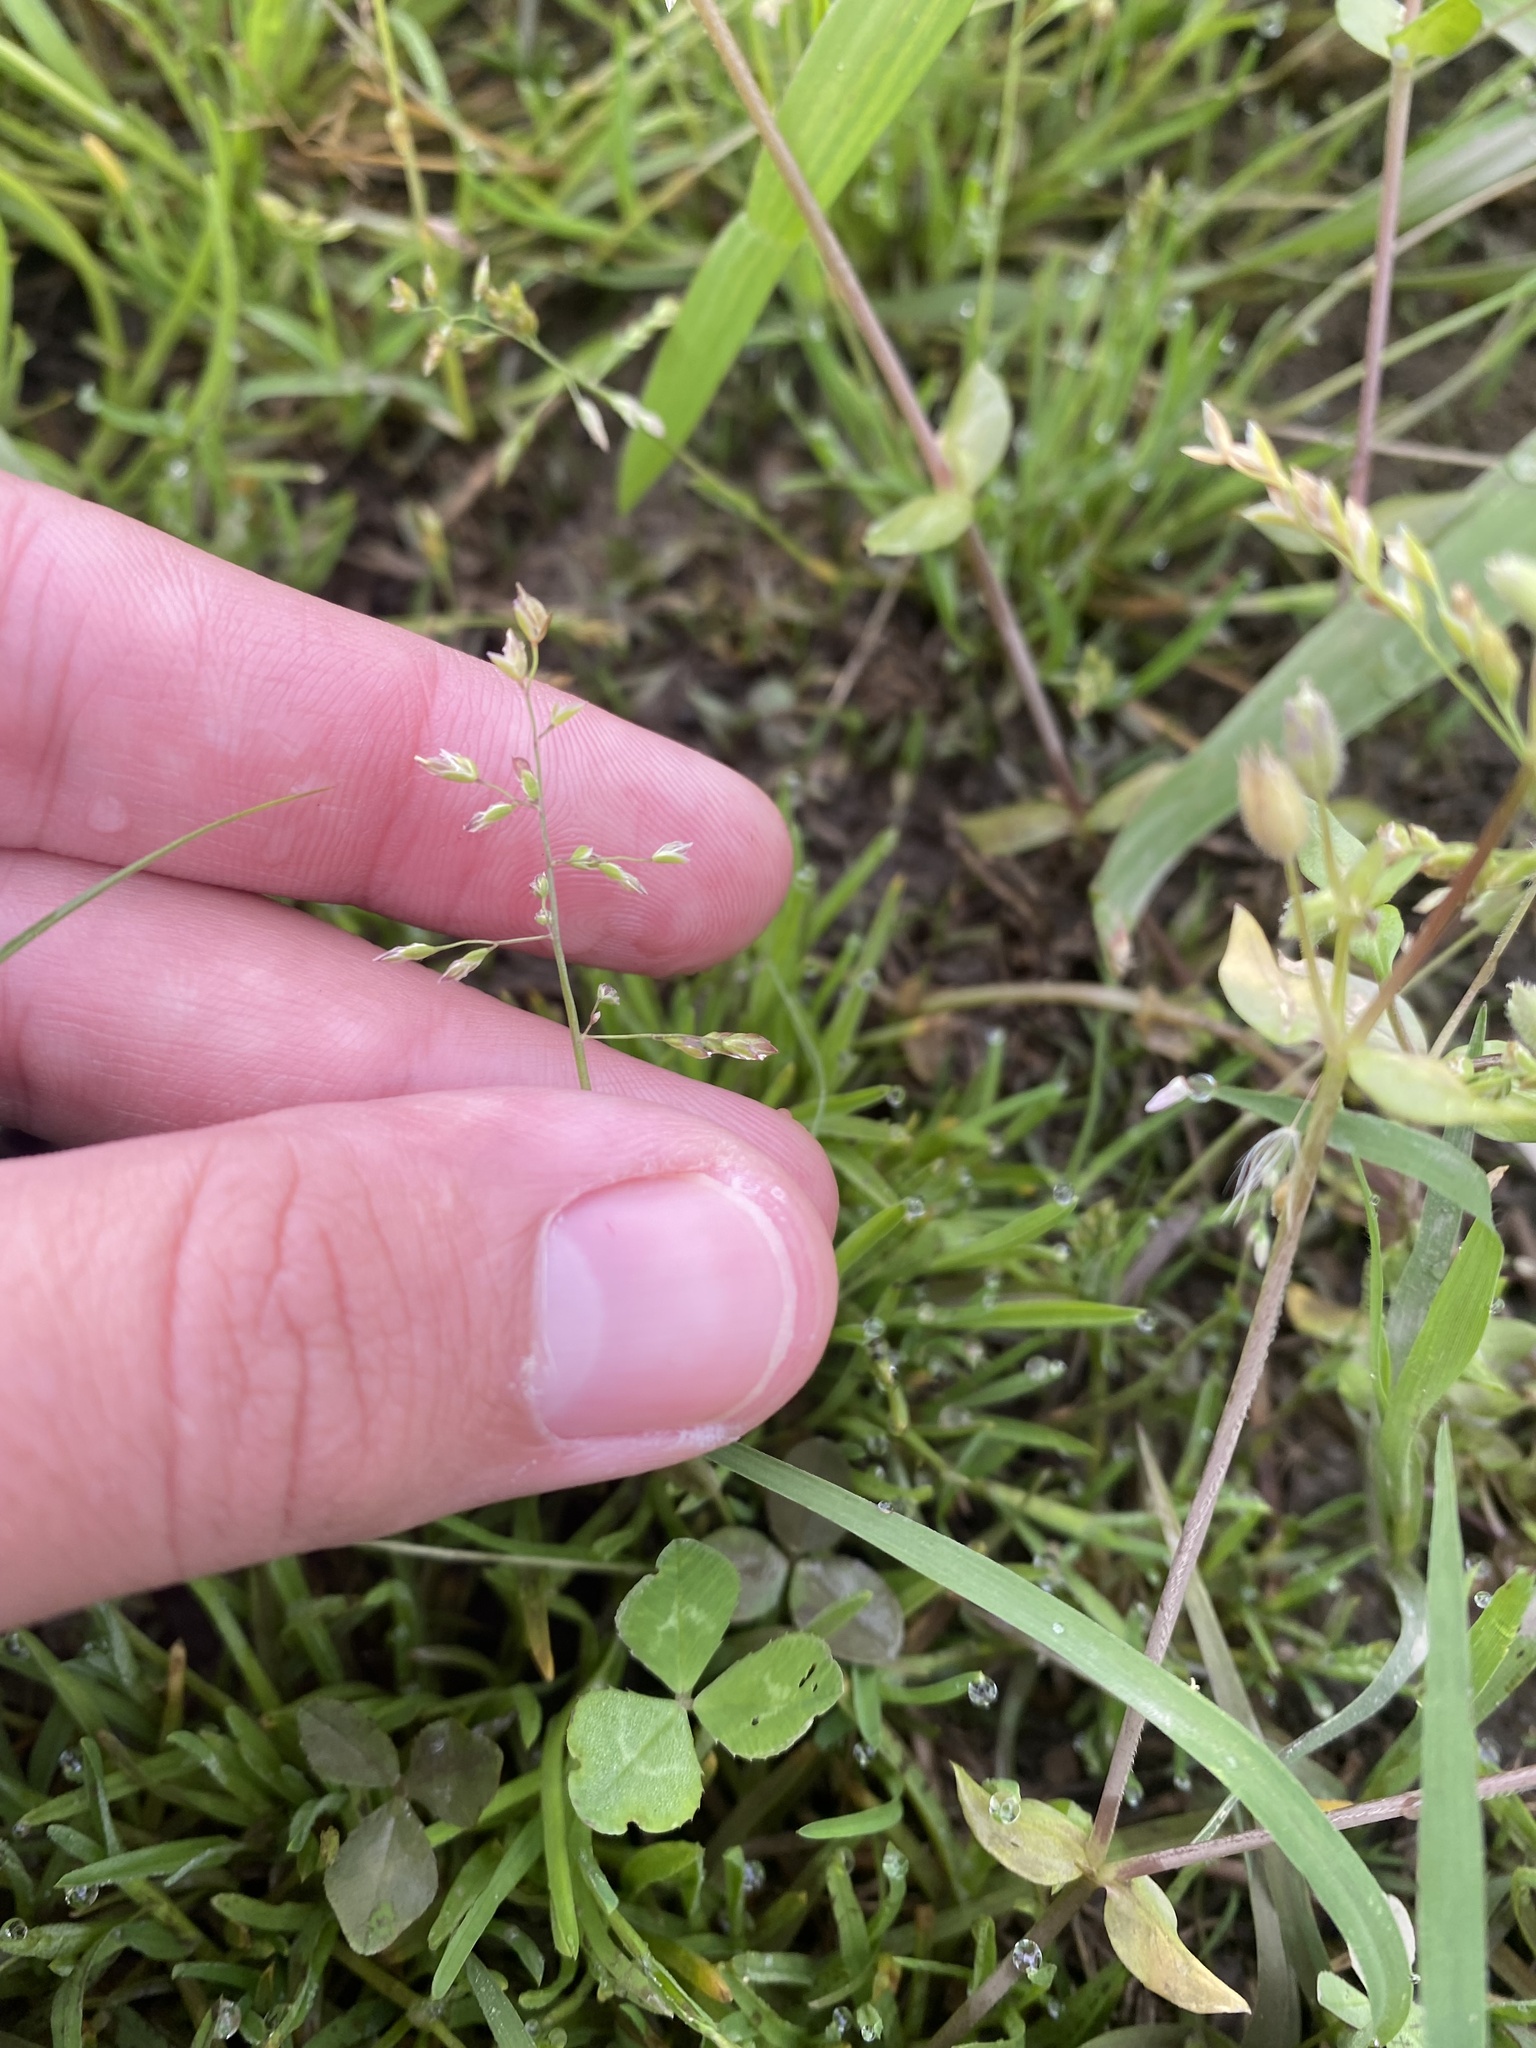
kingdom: Plantae
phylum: Tracheophyta
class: Liliopsida
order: Poales
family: Poaceae
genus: Poa
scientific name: Poa annua
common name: Annual bluegrass
